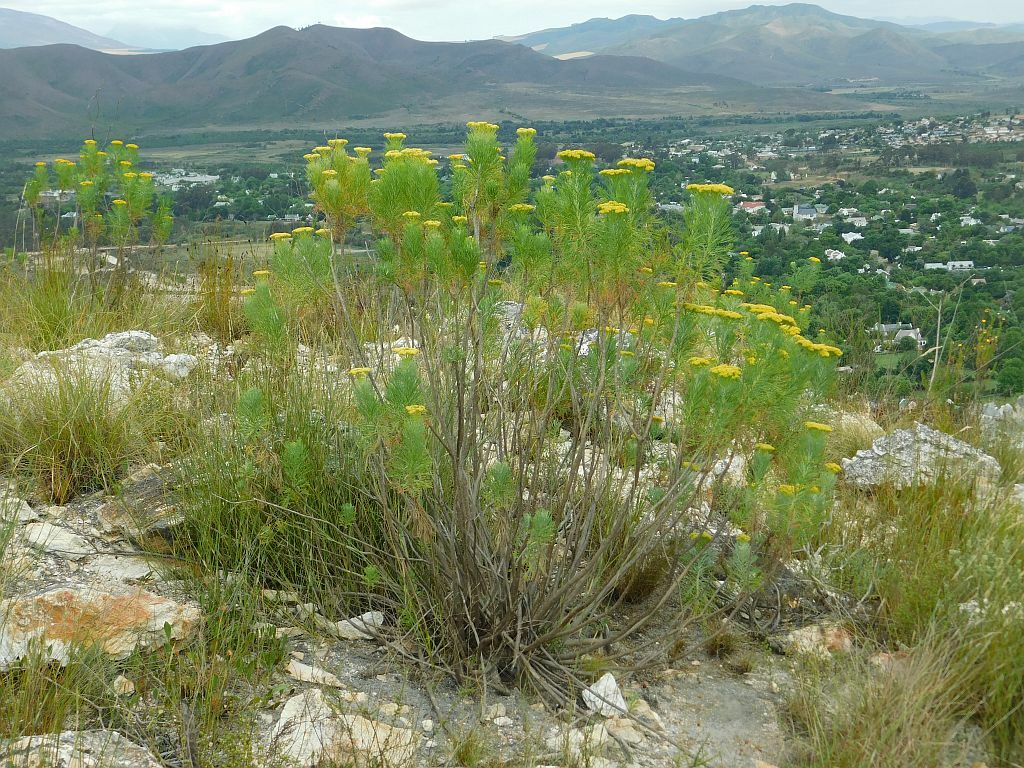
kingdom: Plantae
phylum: Tracheophyta
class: Magnoliopsida
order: Asterales
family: Asteraceae
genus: Hymenolepis
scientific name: Hymenolepis crithmifolia
